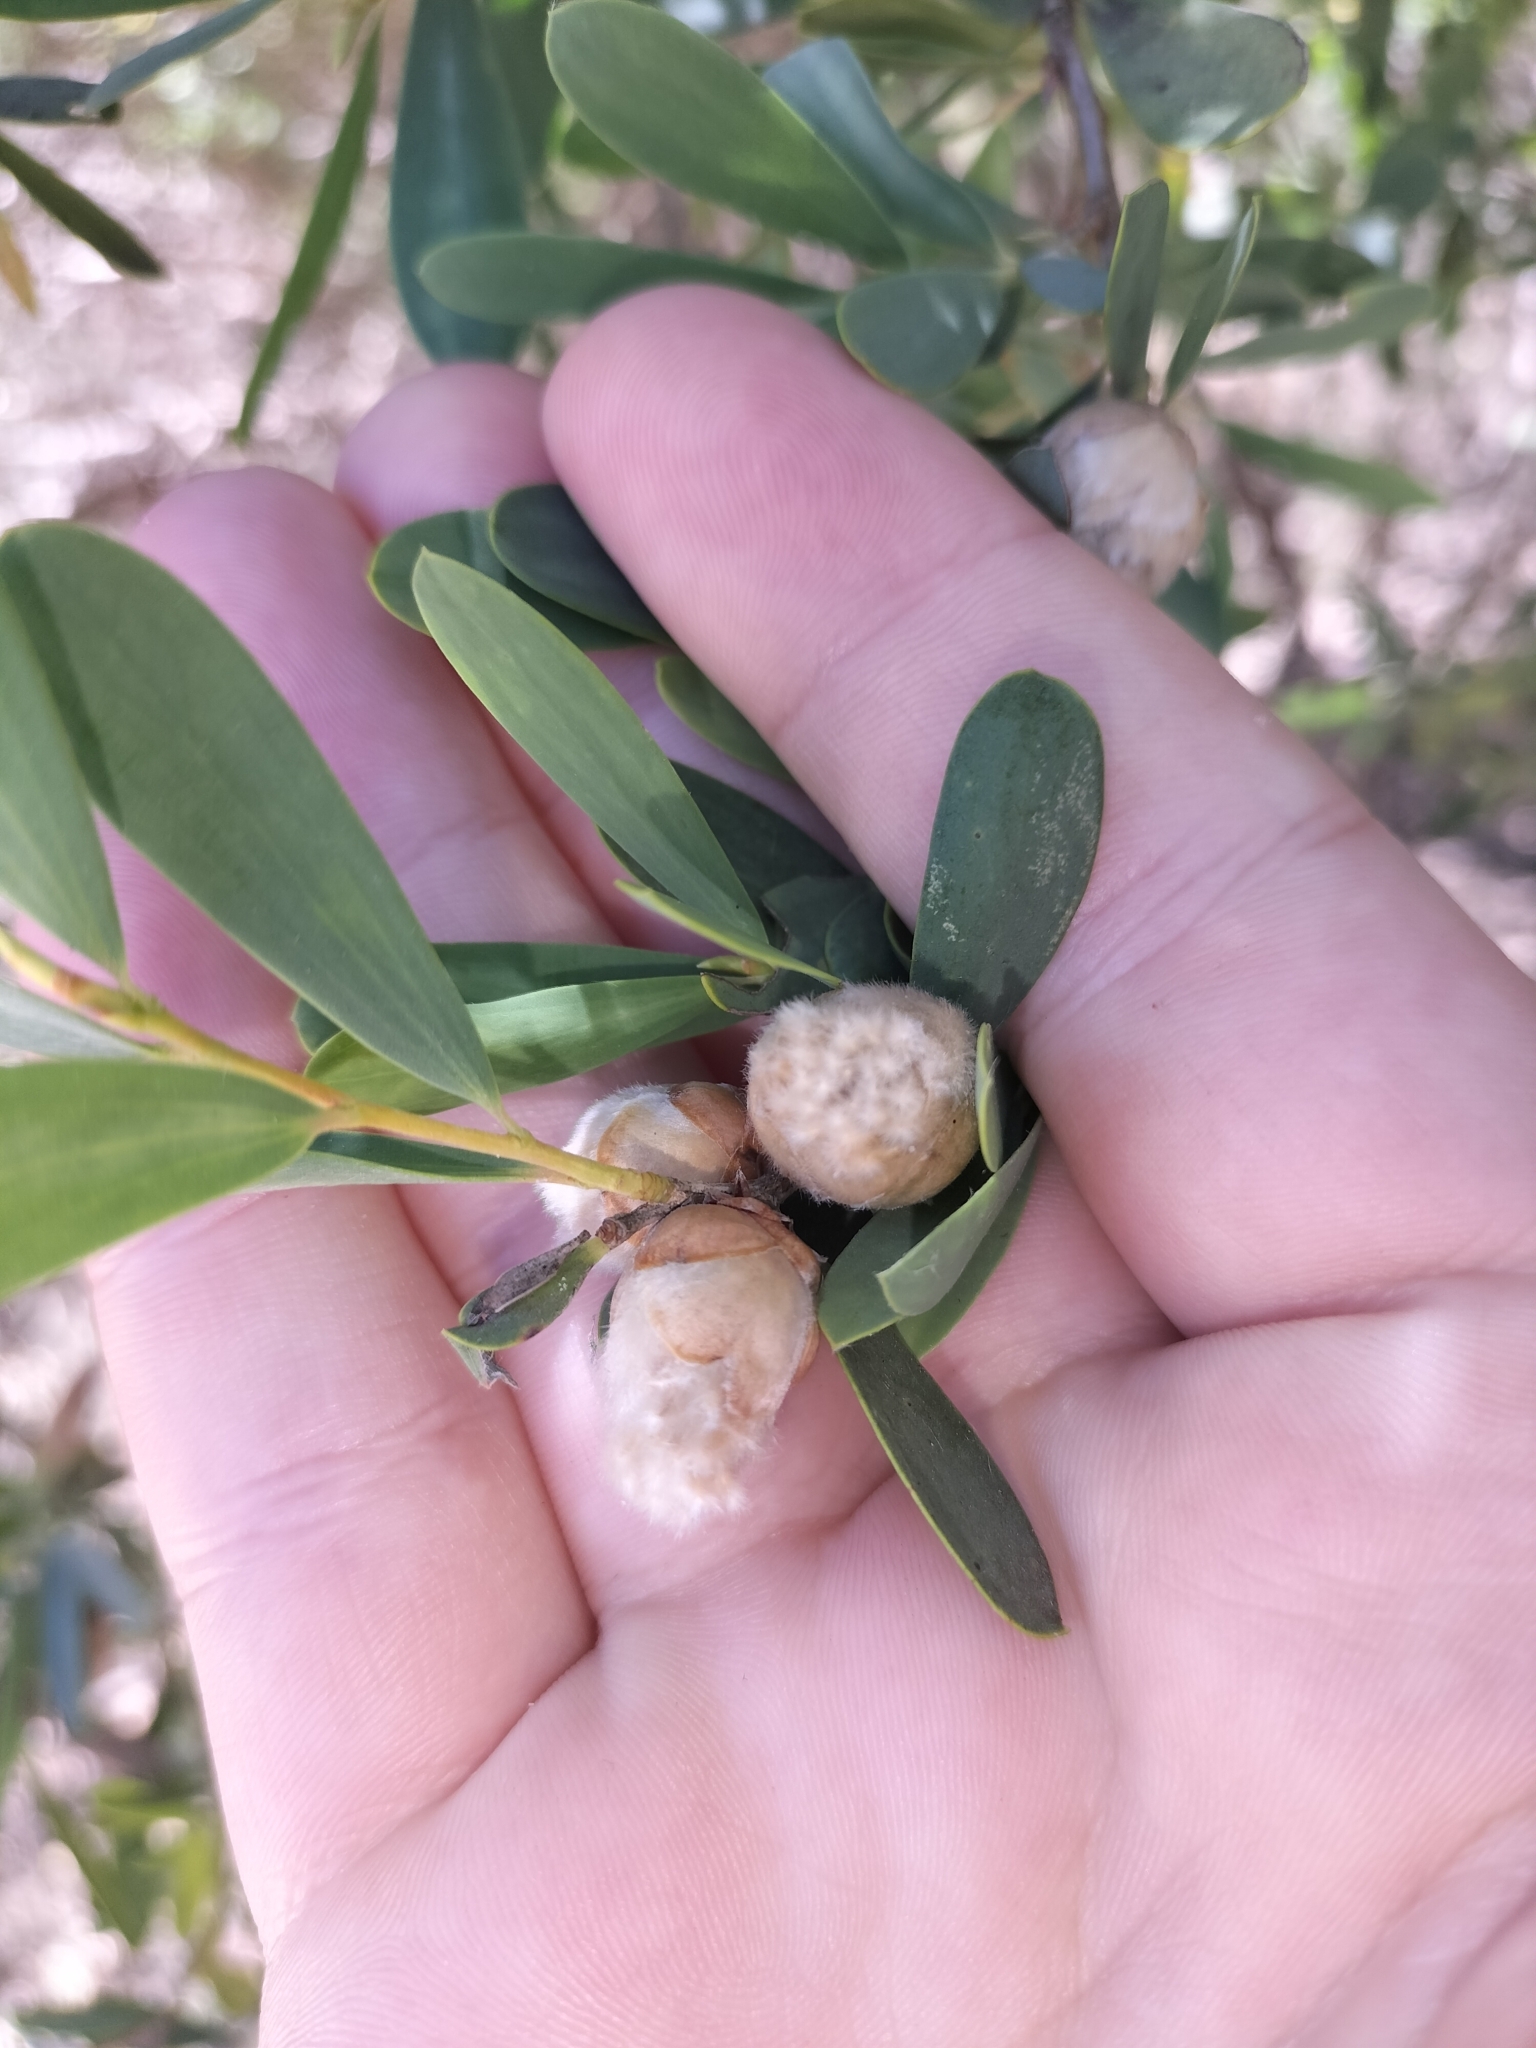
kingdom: Plantae
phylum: Tracheophyta
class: Magnoliopsida
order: Myrtales
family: Myrtaceae
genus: Leptospermum
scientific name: Leptospermum laevigatum
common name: Australian teatree
